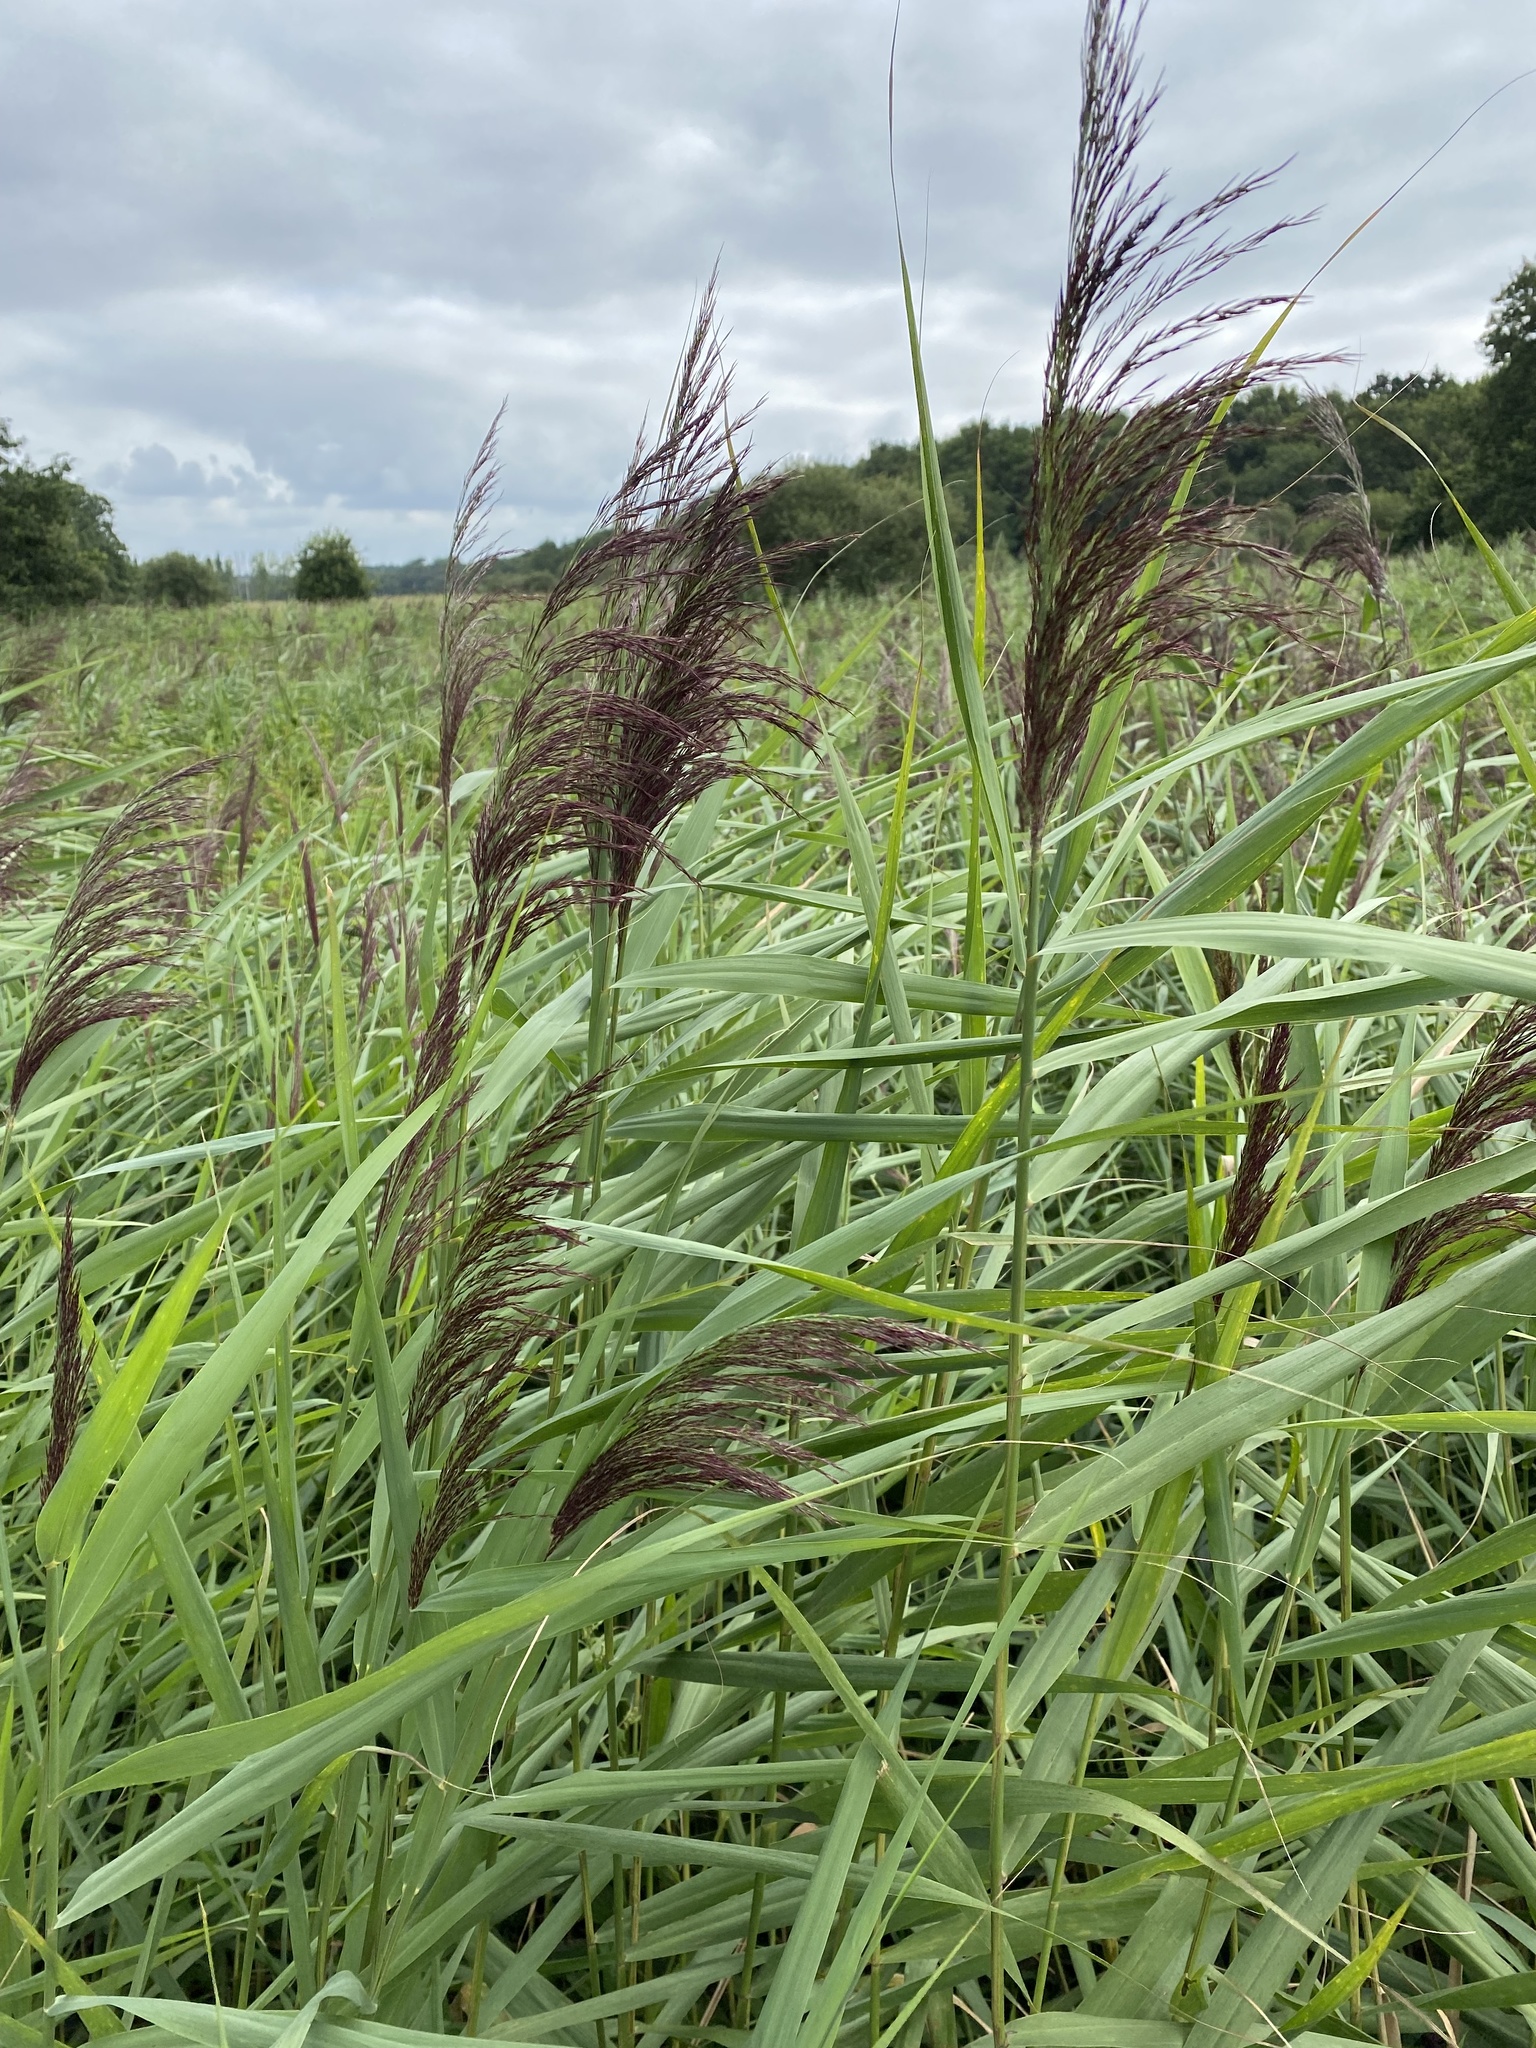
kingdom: Plantae
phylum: Tracheophyta
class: Liliopsida
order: Poales
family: Poaceae
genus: Phragmites
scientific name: Phragmites australis
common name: Common reed
